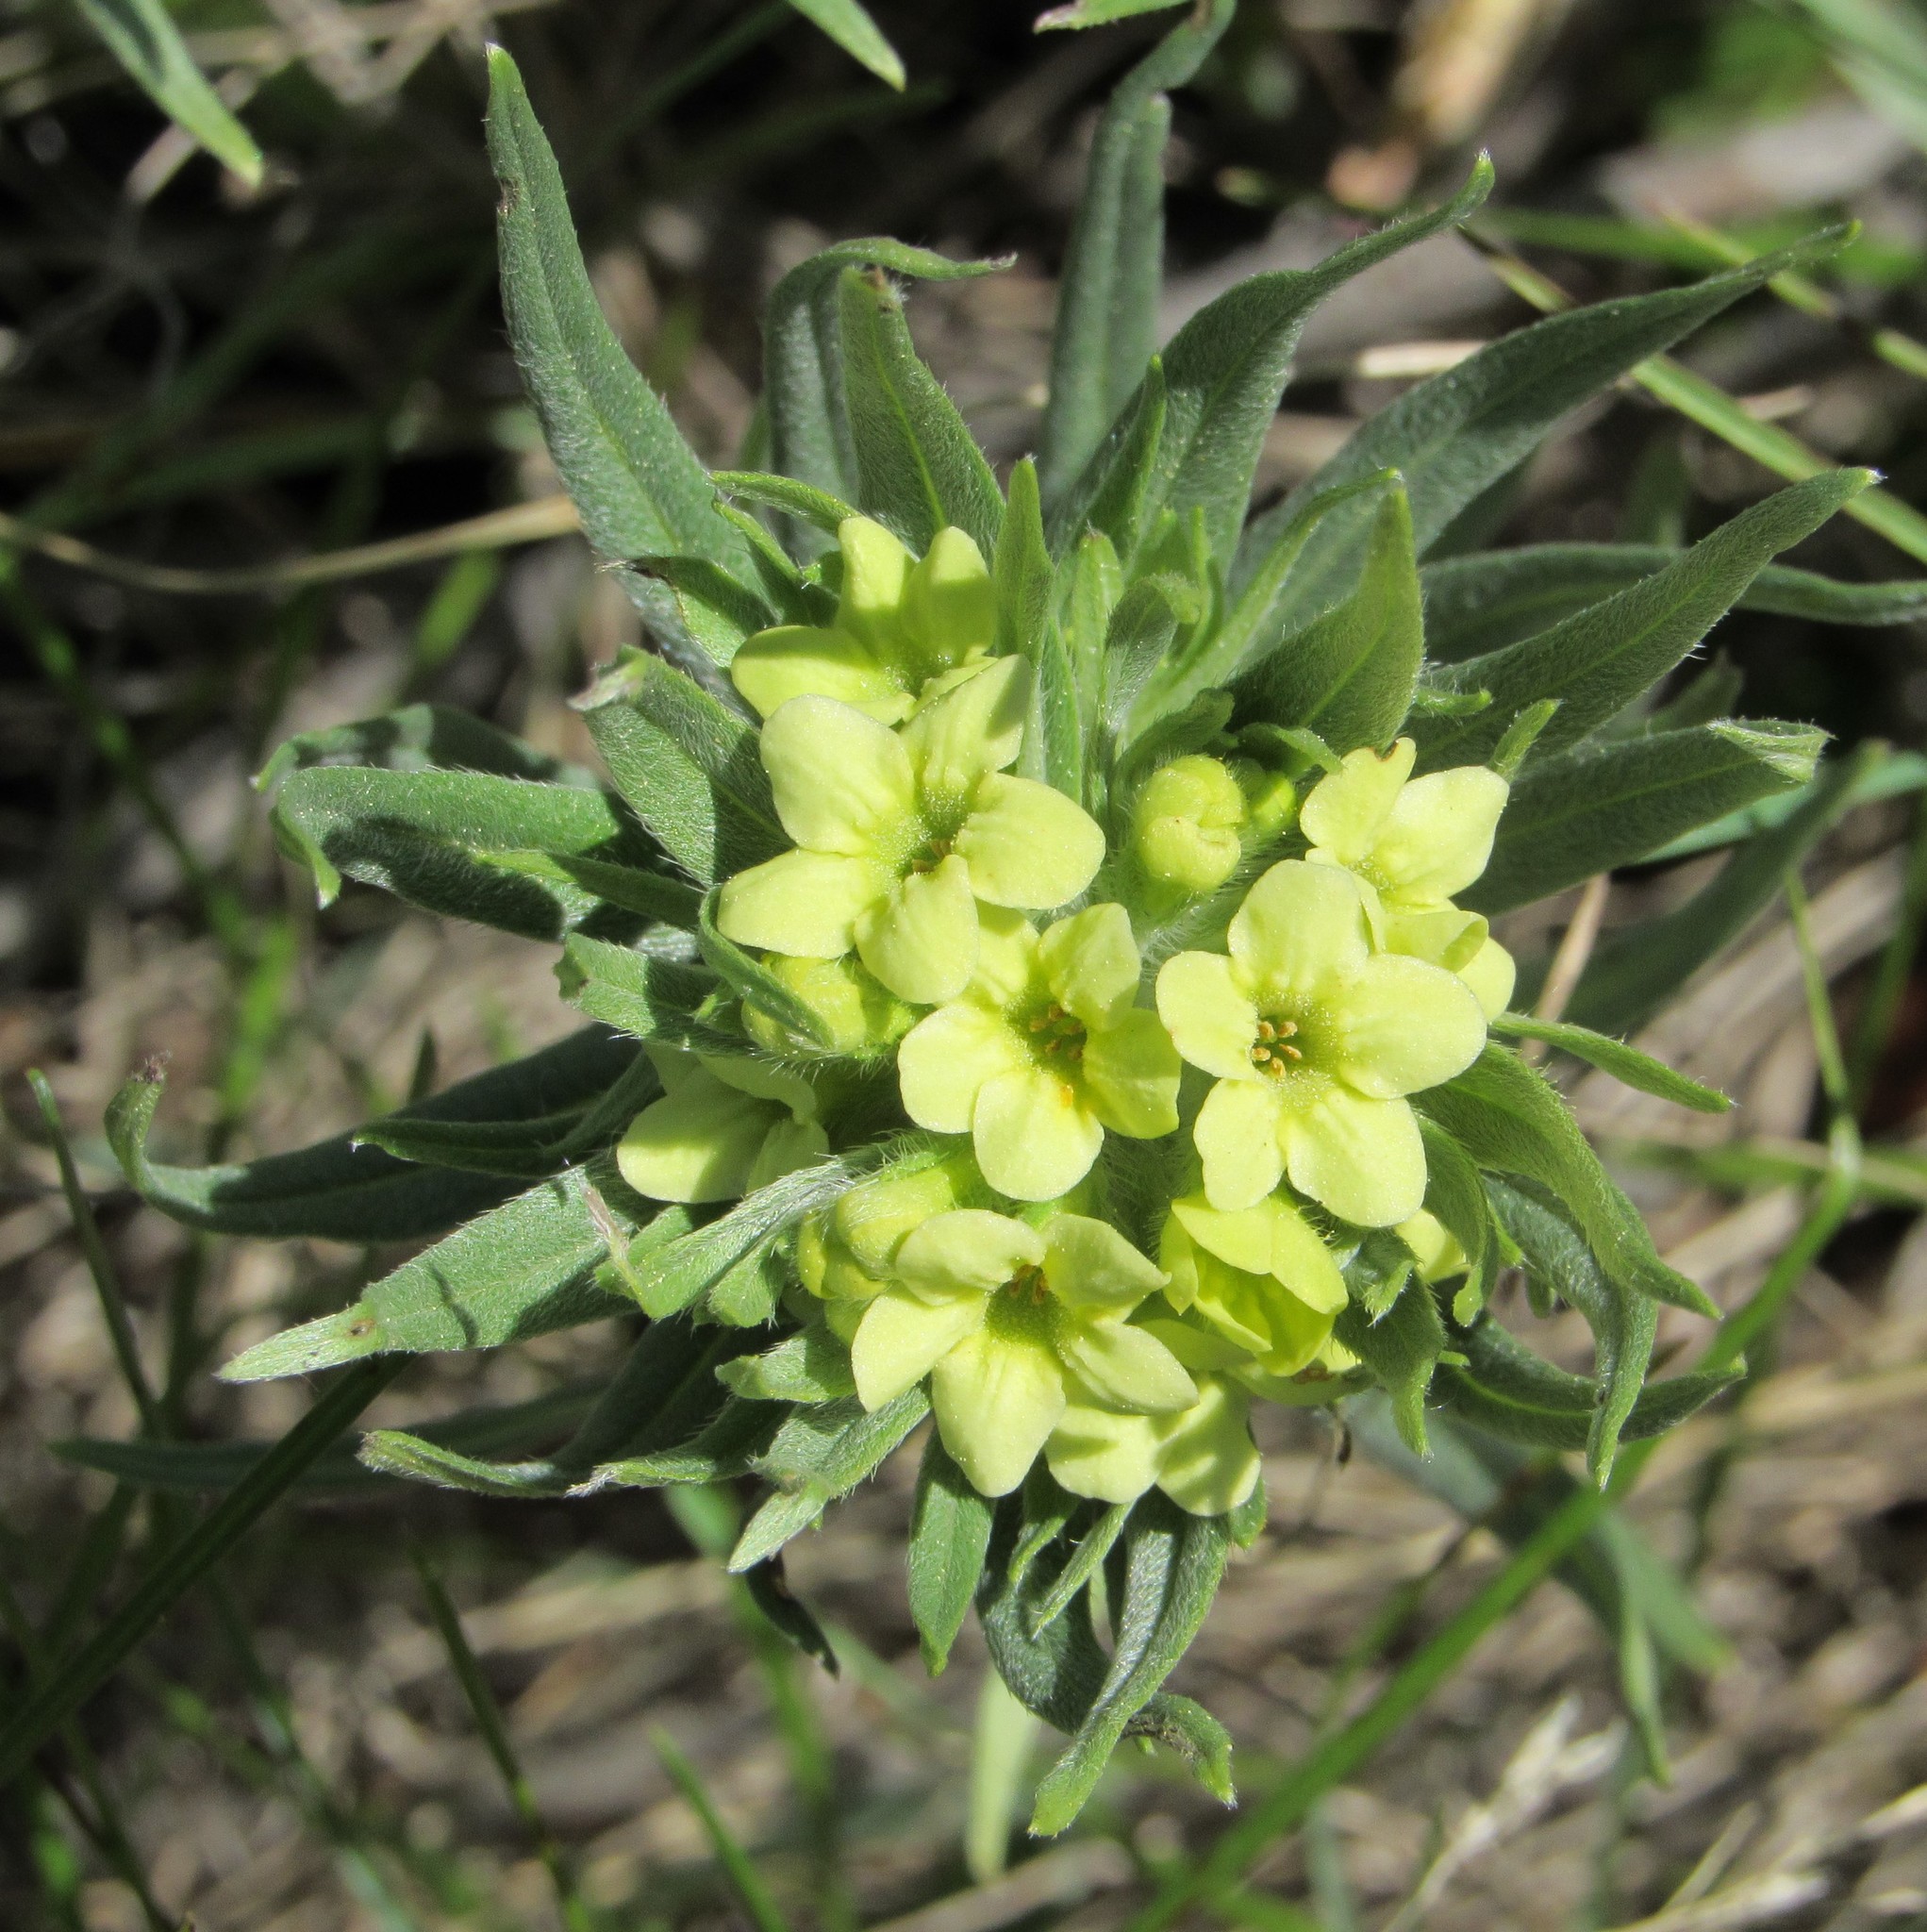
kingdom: Plantae
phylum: Tracheophyta
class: Magnoliopsida
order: Boraginales
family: Boraginaceae
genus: Lithospermum
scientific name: Lithospermum ruderale
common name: Western gromwell
